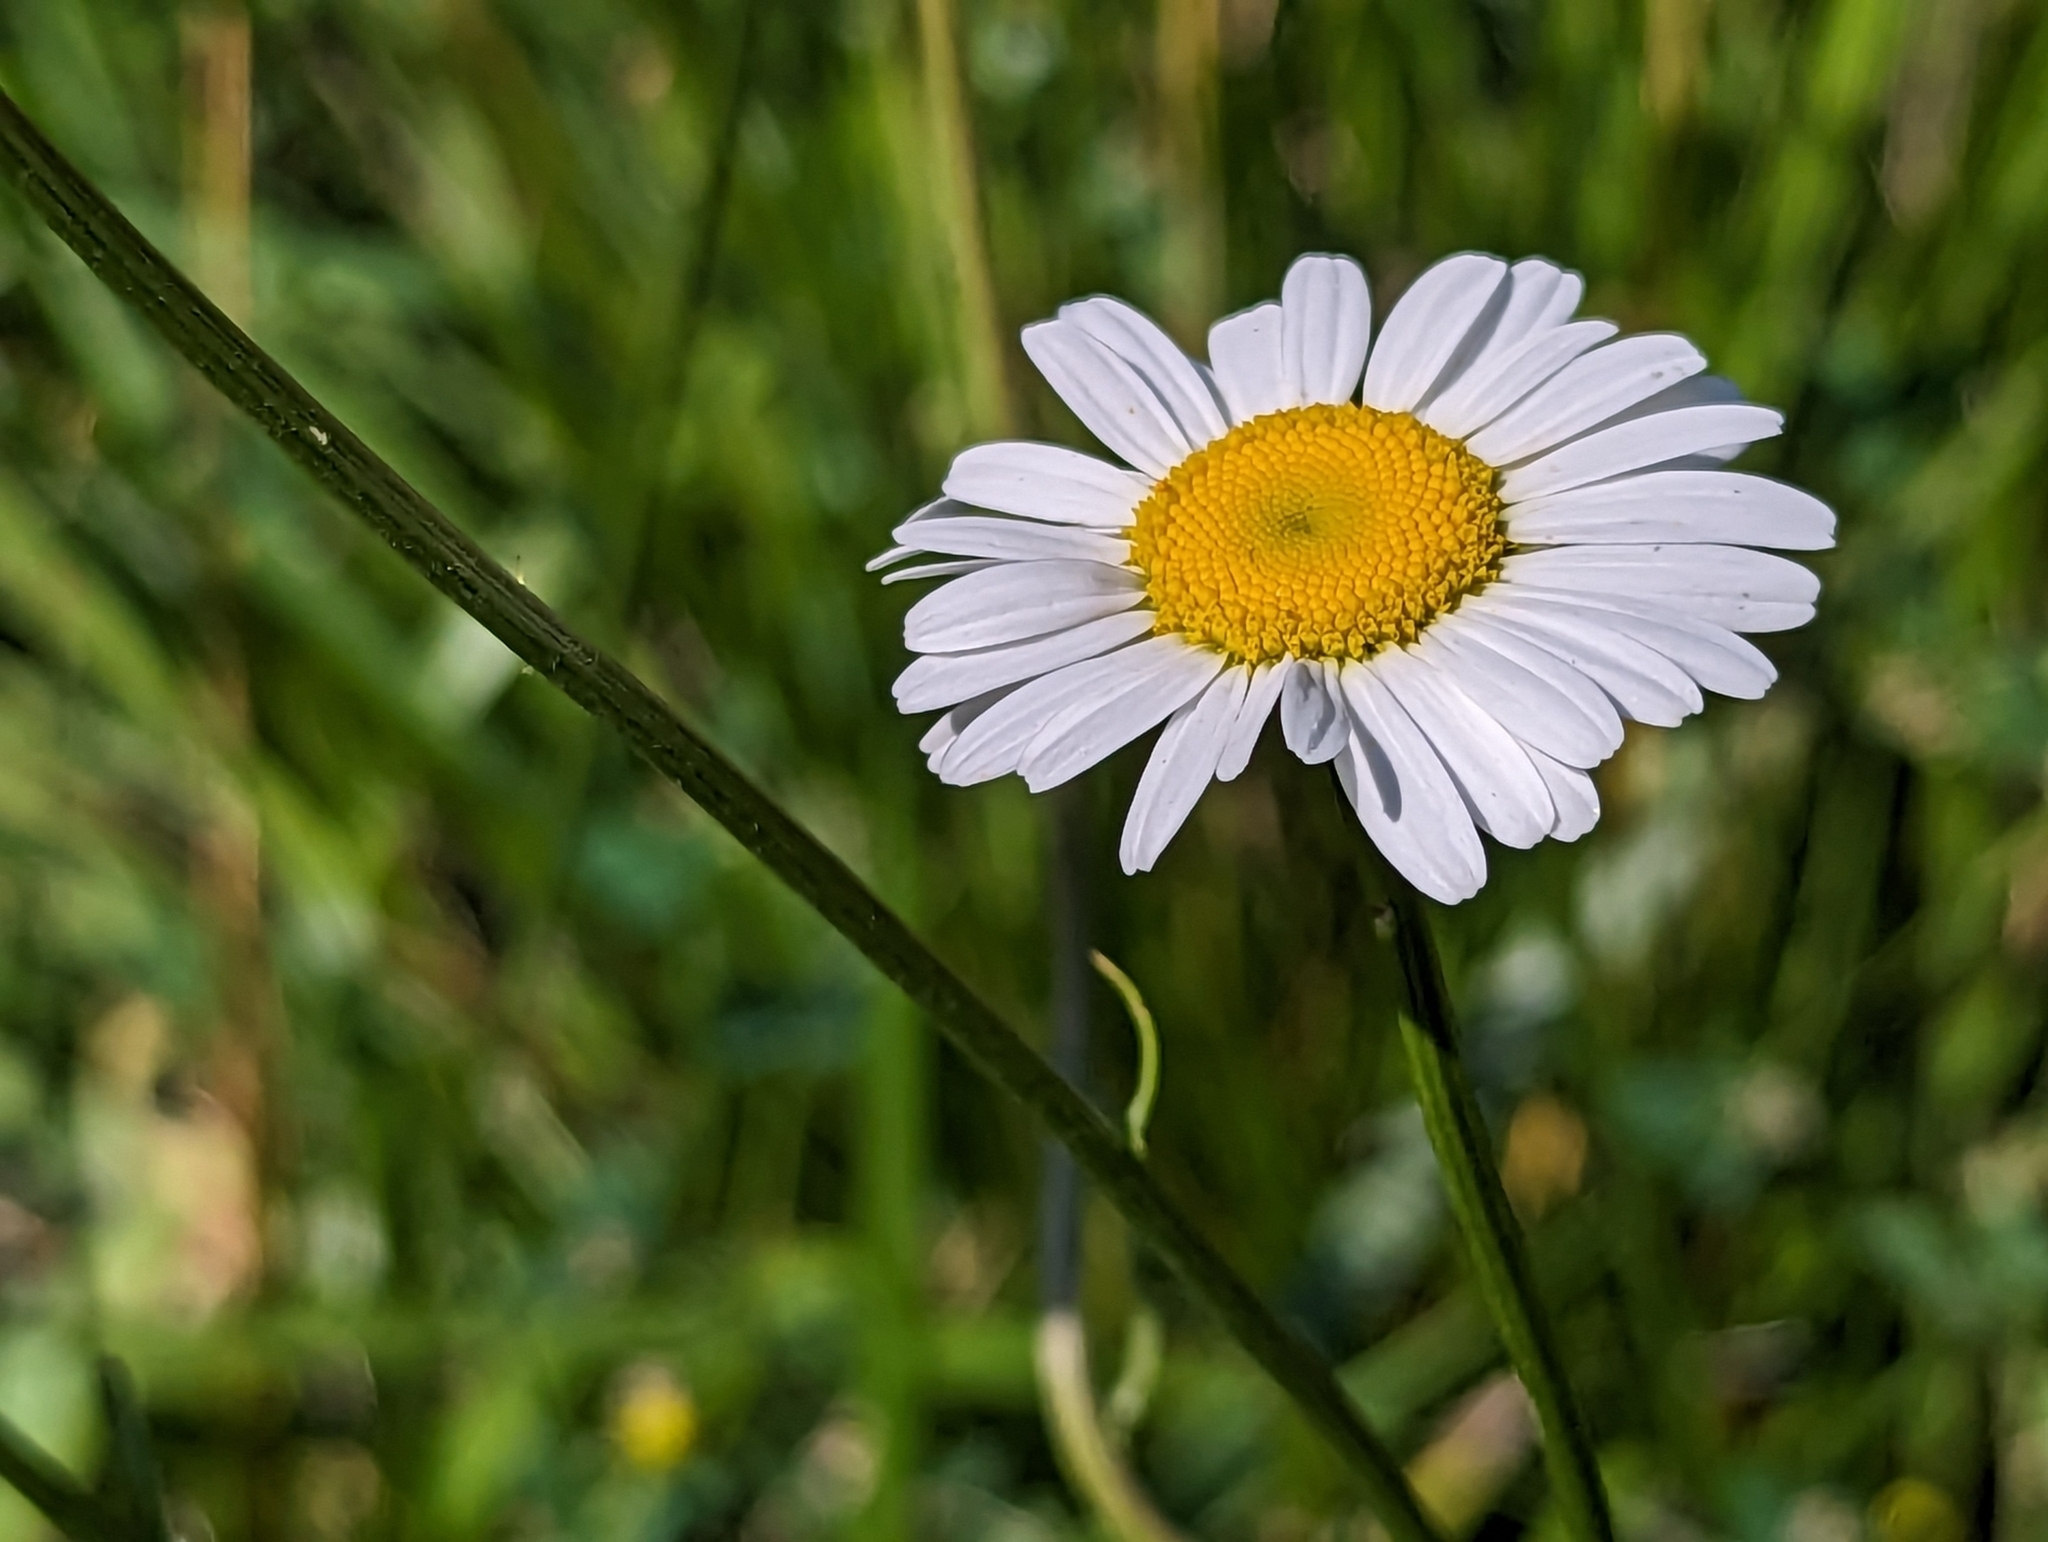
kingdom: Plantae
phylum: Tracheophyta
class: Magnoliopsida
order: Asterales
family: Asteraceae
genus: Leucanthemum
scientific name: Leucanthemum vulgare
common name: Oxeye daisy
